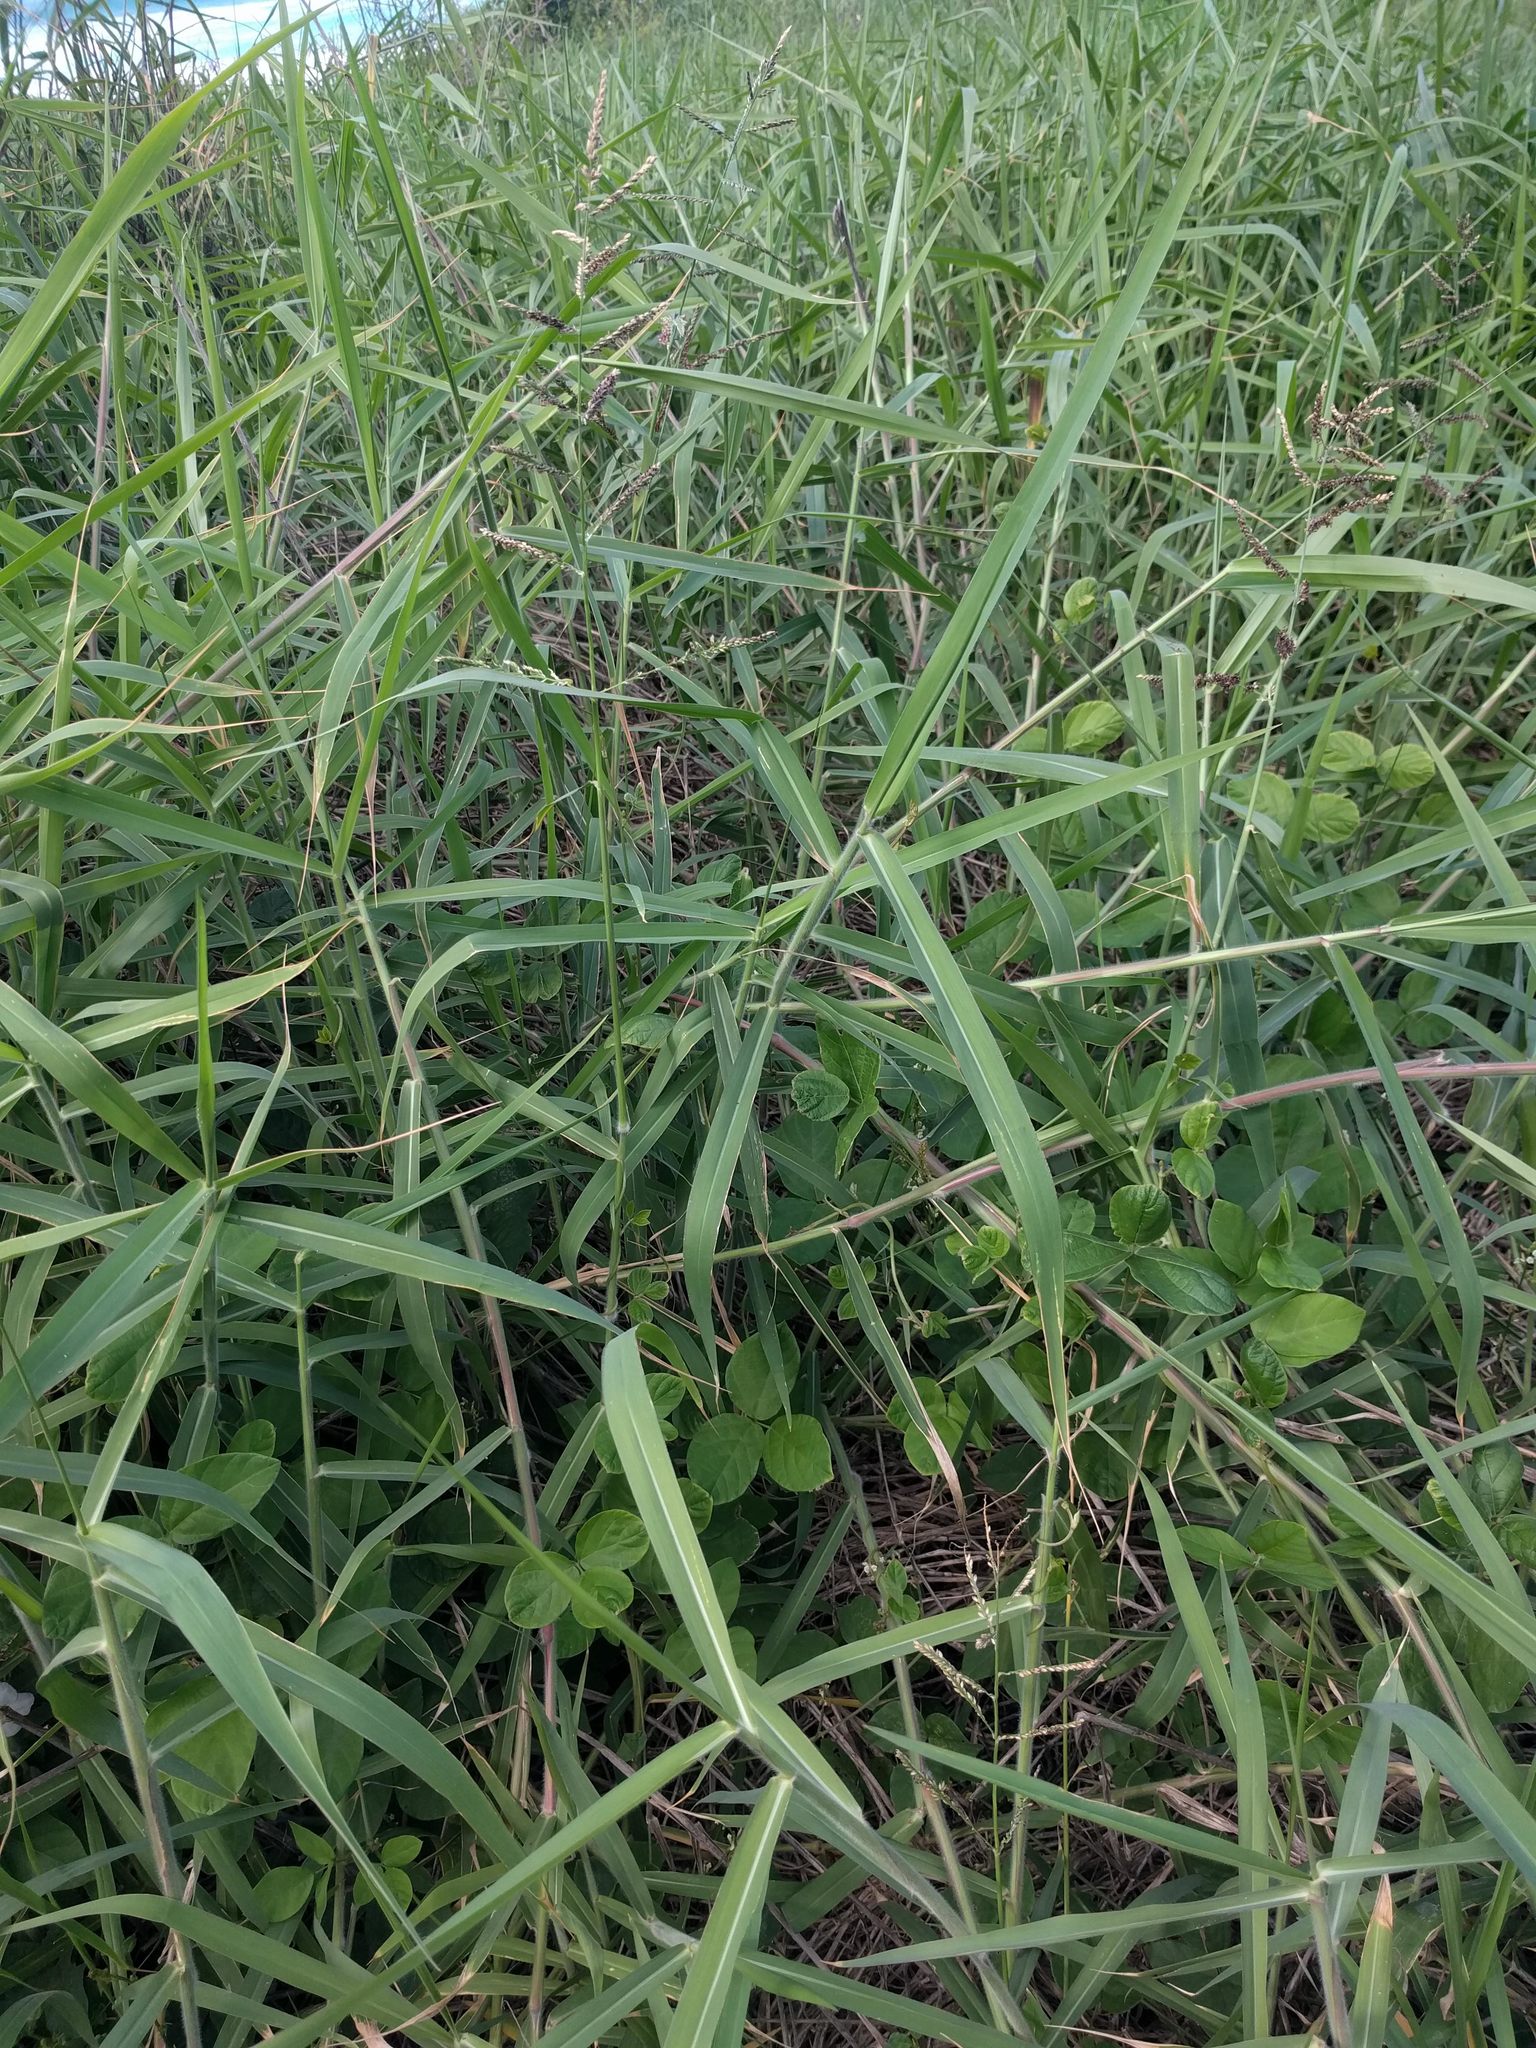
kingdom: Plantae
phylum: Tracheophyta
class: Liliopsida
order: Poales
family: Poaceae
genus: Urochloa
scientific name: Urochloa mutica
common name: Para grass
